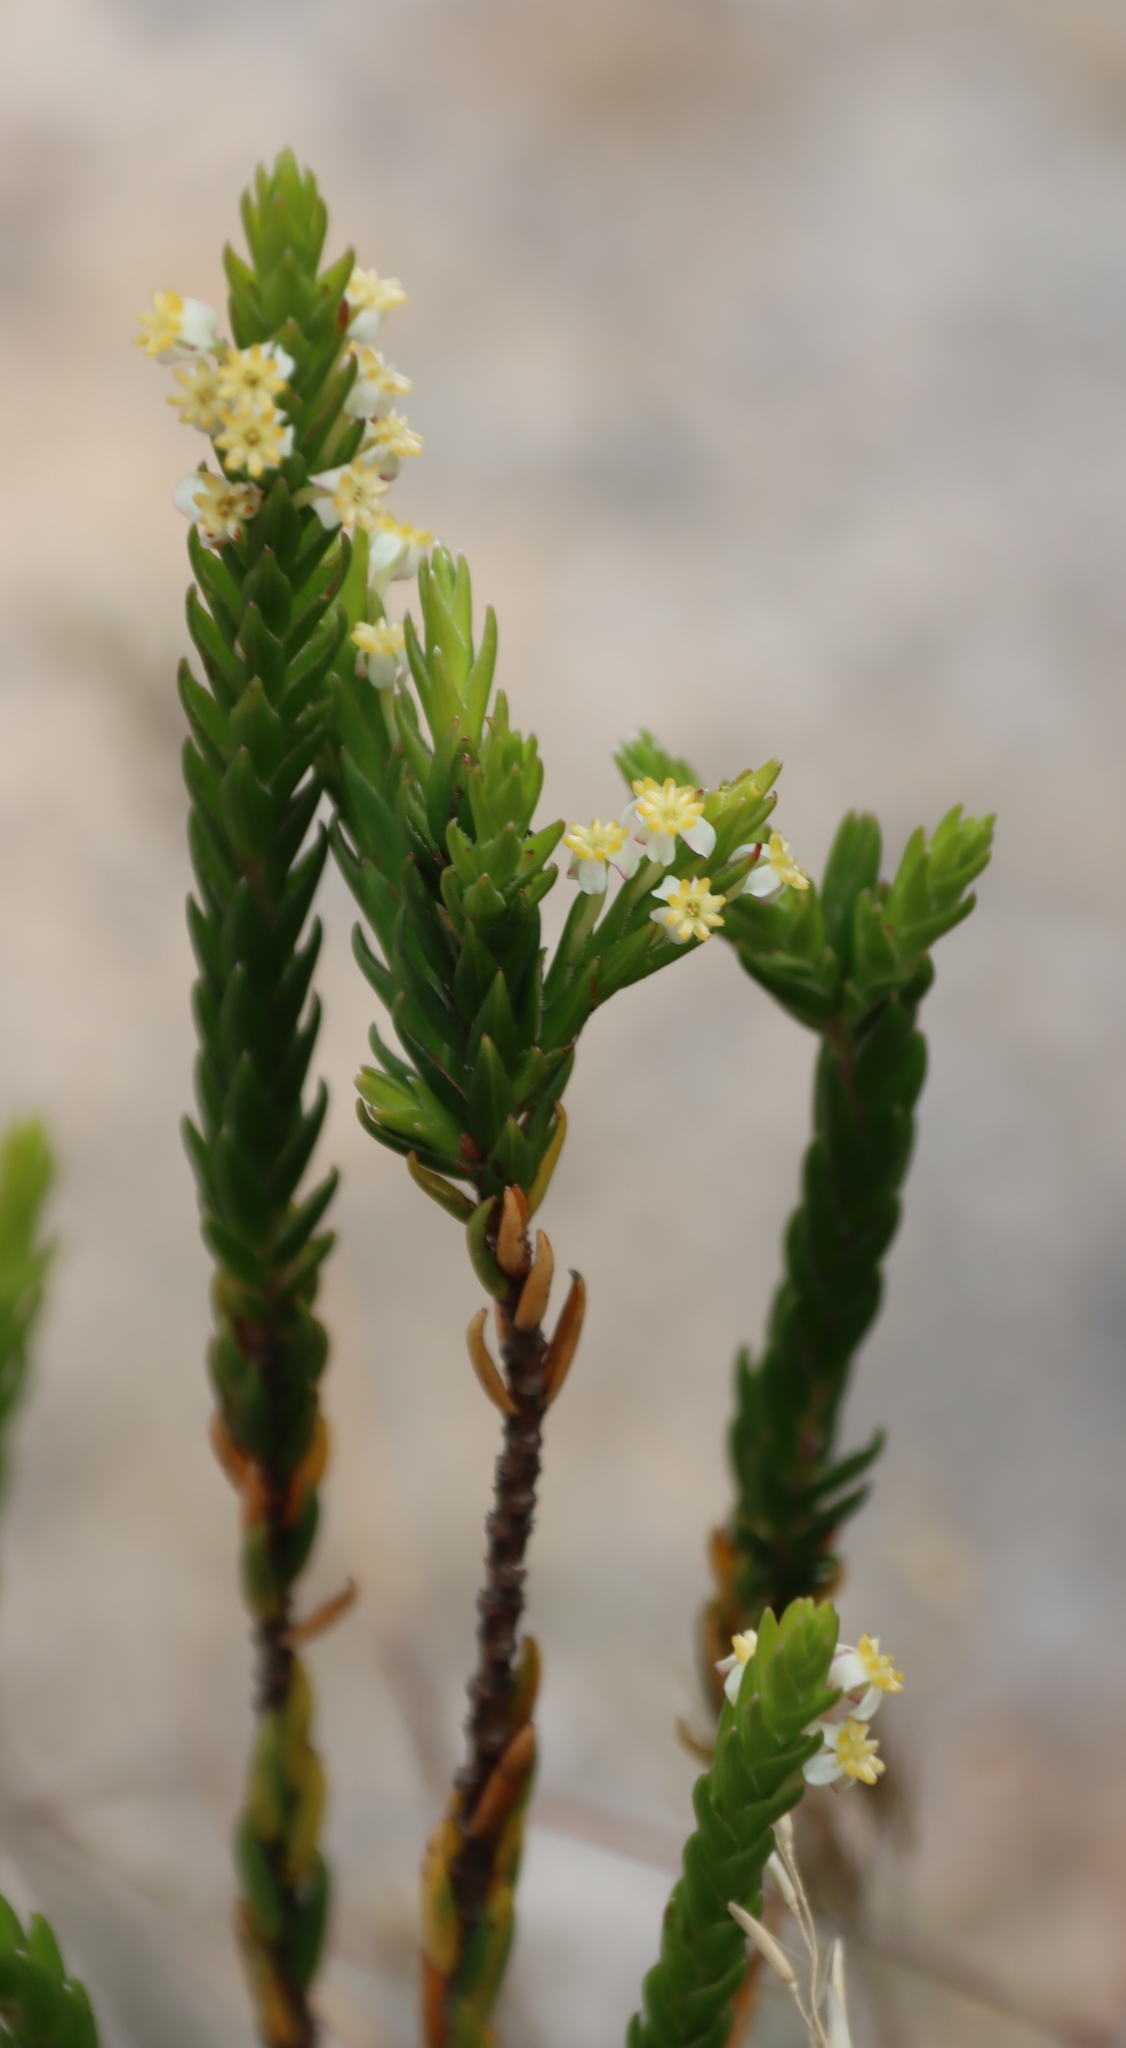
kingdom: Plantae
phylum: Tracheophyta
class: Magnoliopsida
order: Malvales
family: Thymelaeaceae
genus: Struthiola
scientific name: Struthiola ciliata
